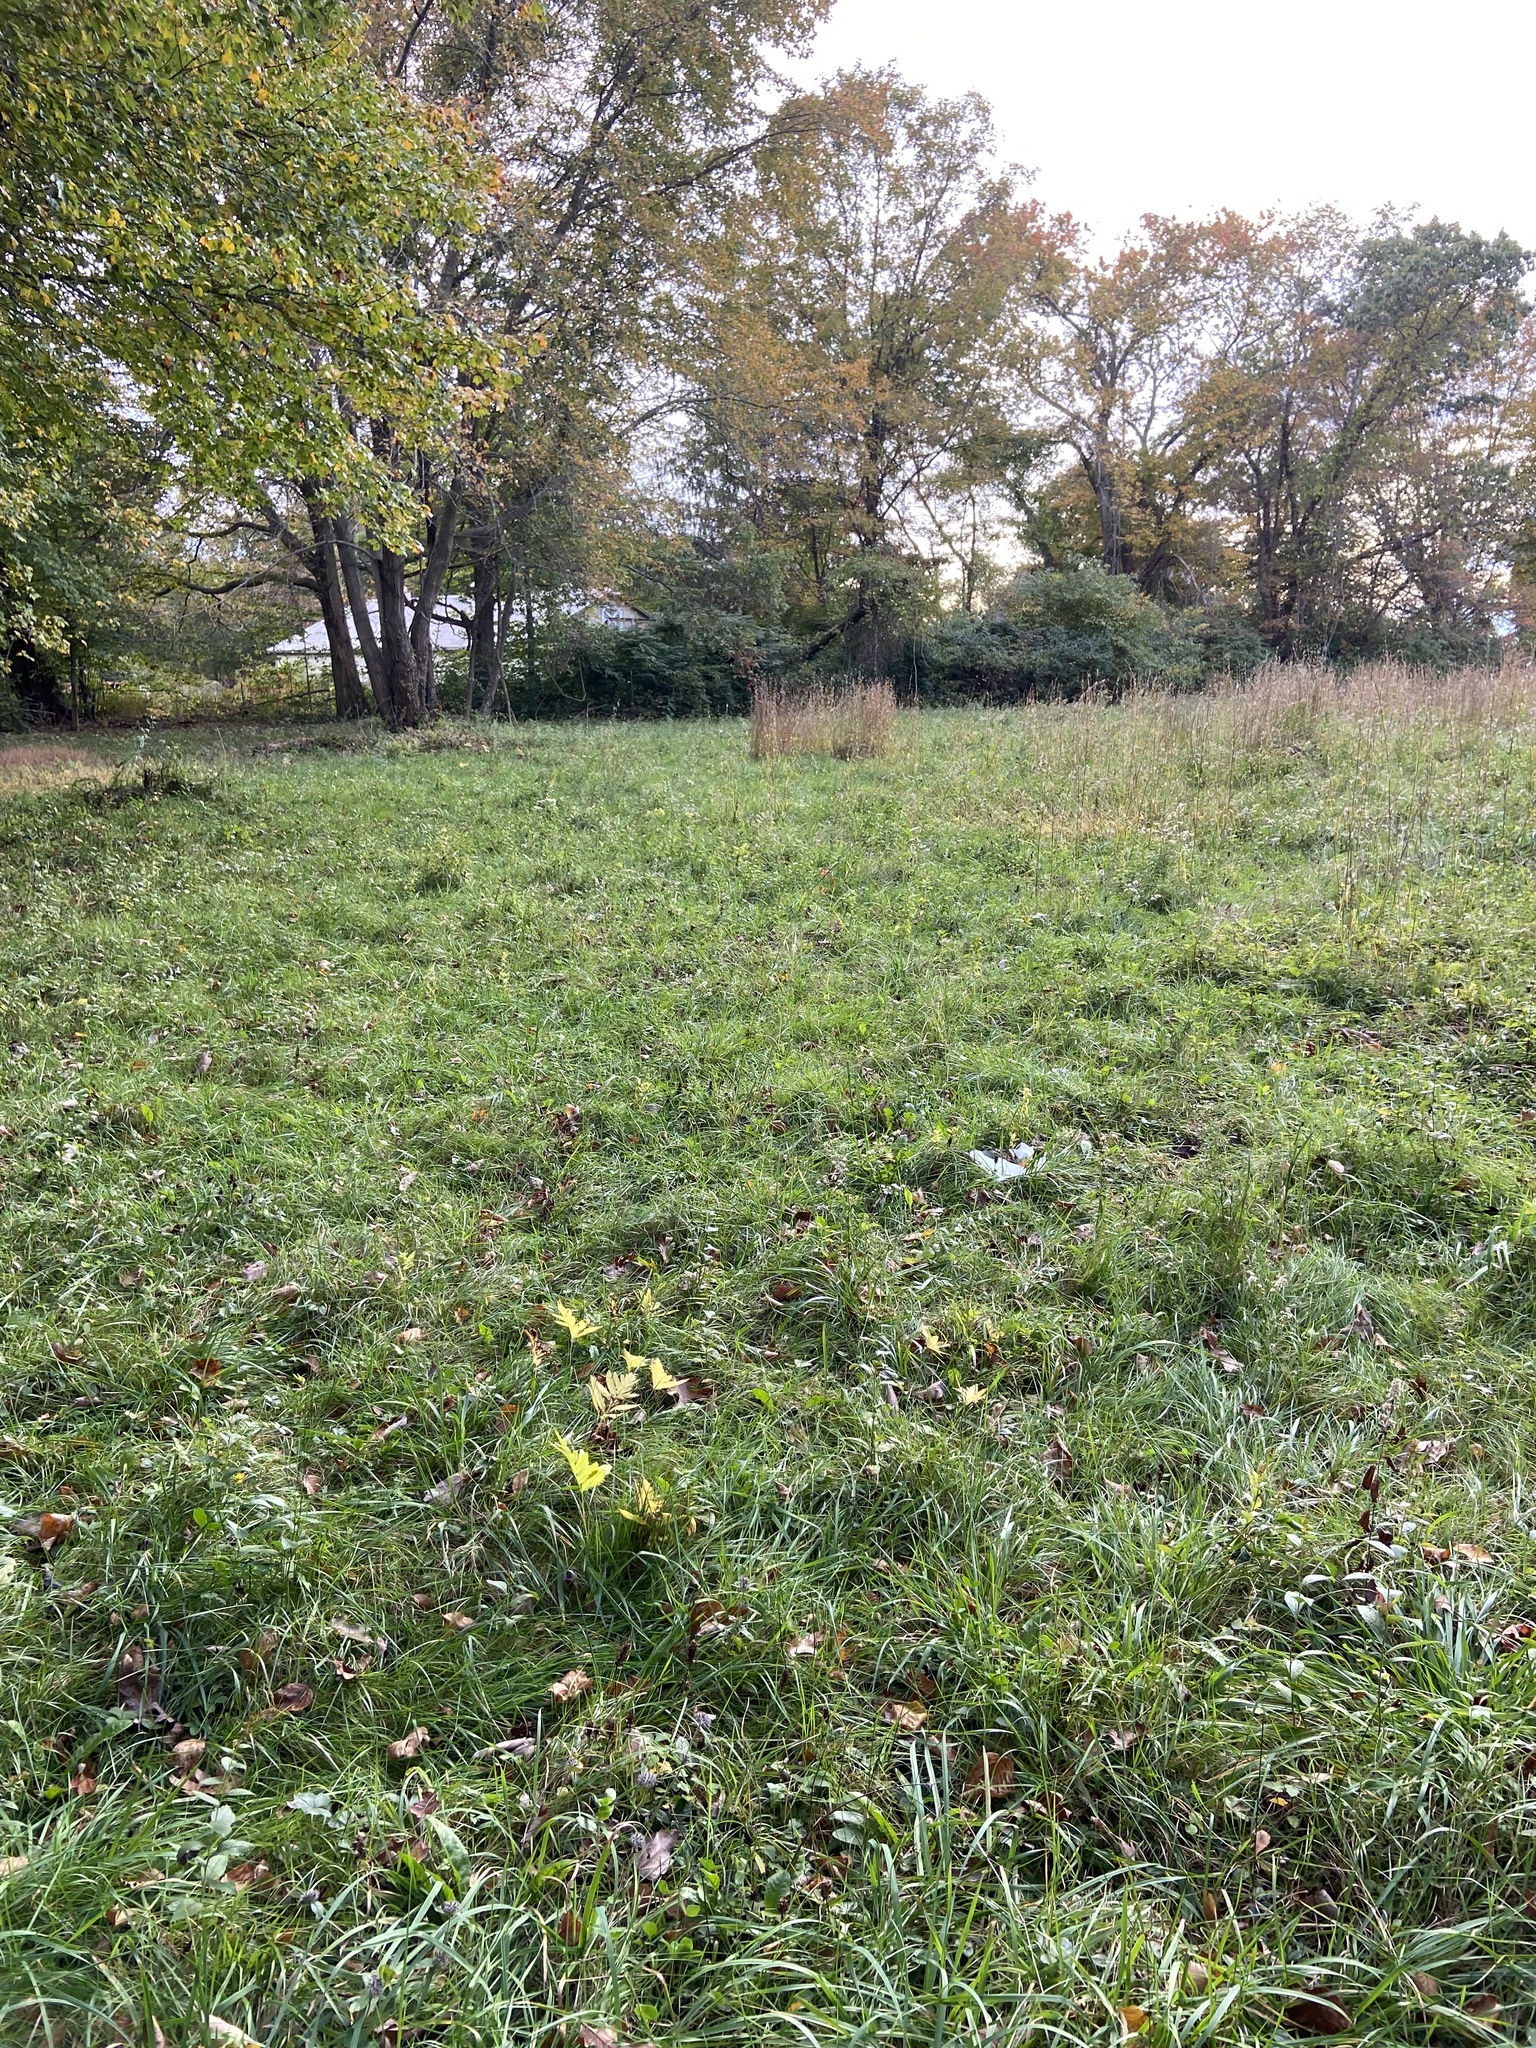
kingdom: Plantae
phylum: Tracheophyta
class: Magnoliopsida
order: Gentianales
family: Apocynaceae
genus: Asclepias
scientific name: Asclepias syriaca
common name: Common milkweed
